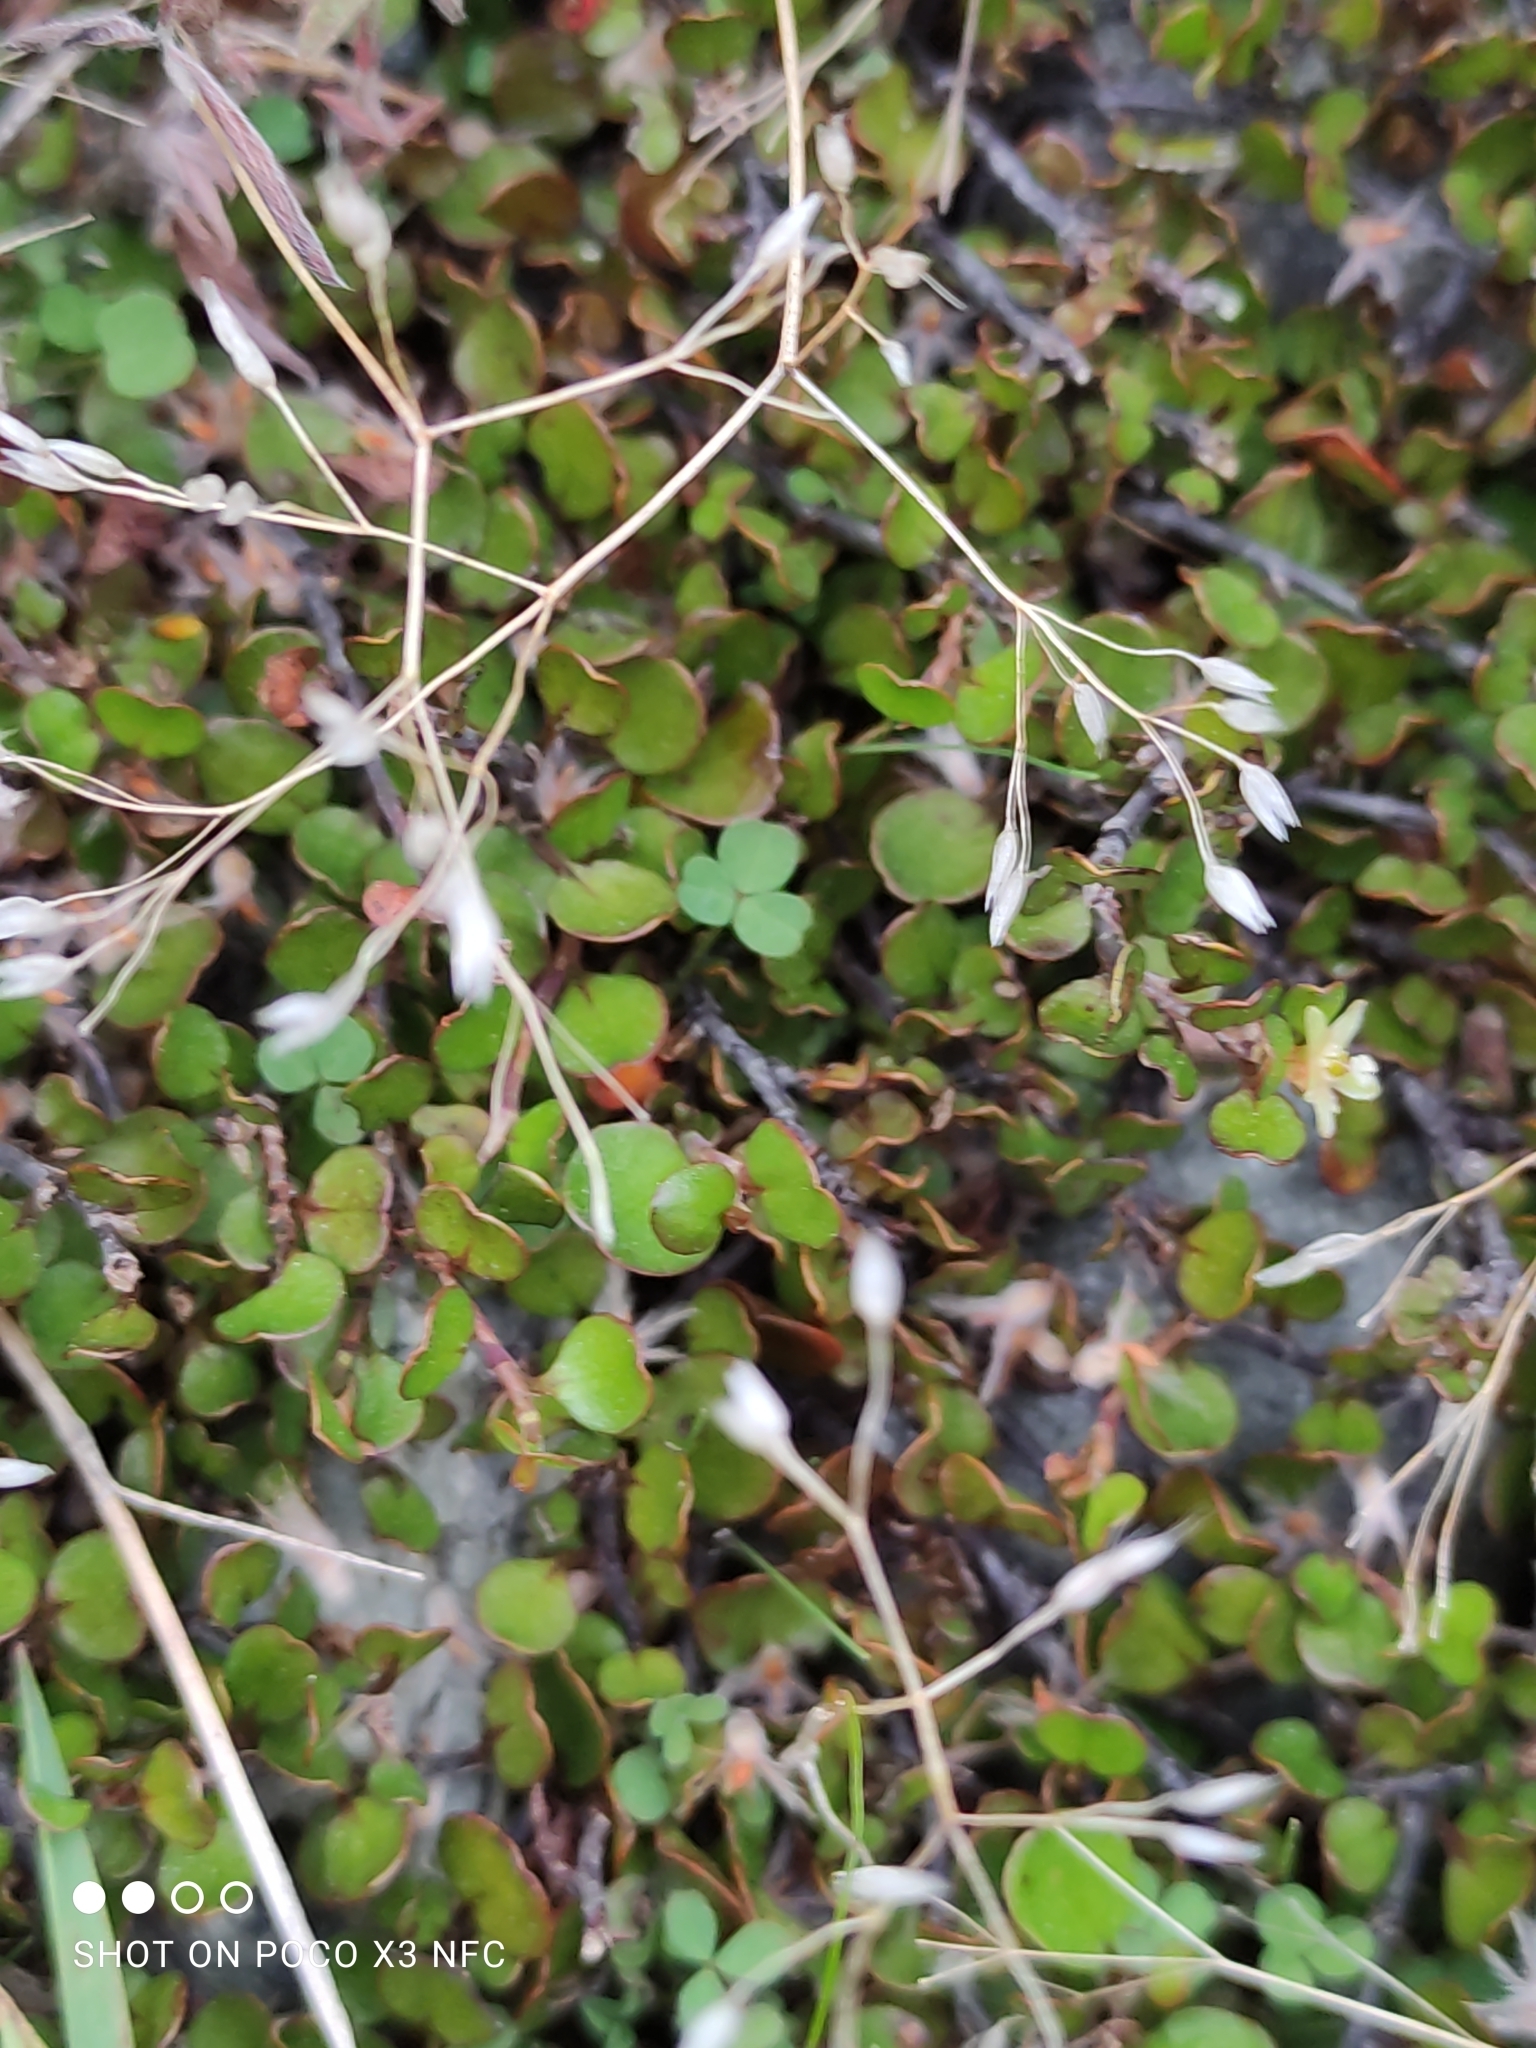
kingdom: Plantae
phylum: Tracheophyta
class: Magnoliopsida
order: Caryophyllales
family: Polygonaceae
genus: Muehlenbeckia
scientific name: Muehlenbeckia axillaris
